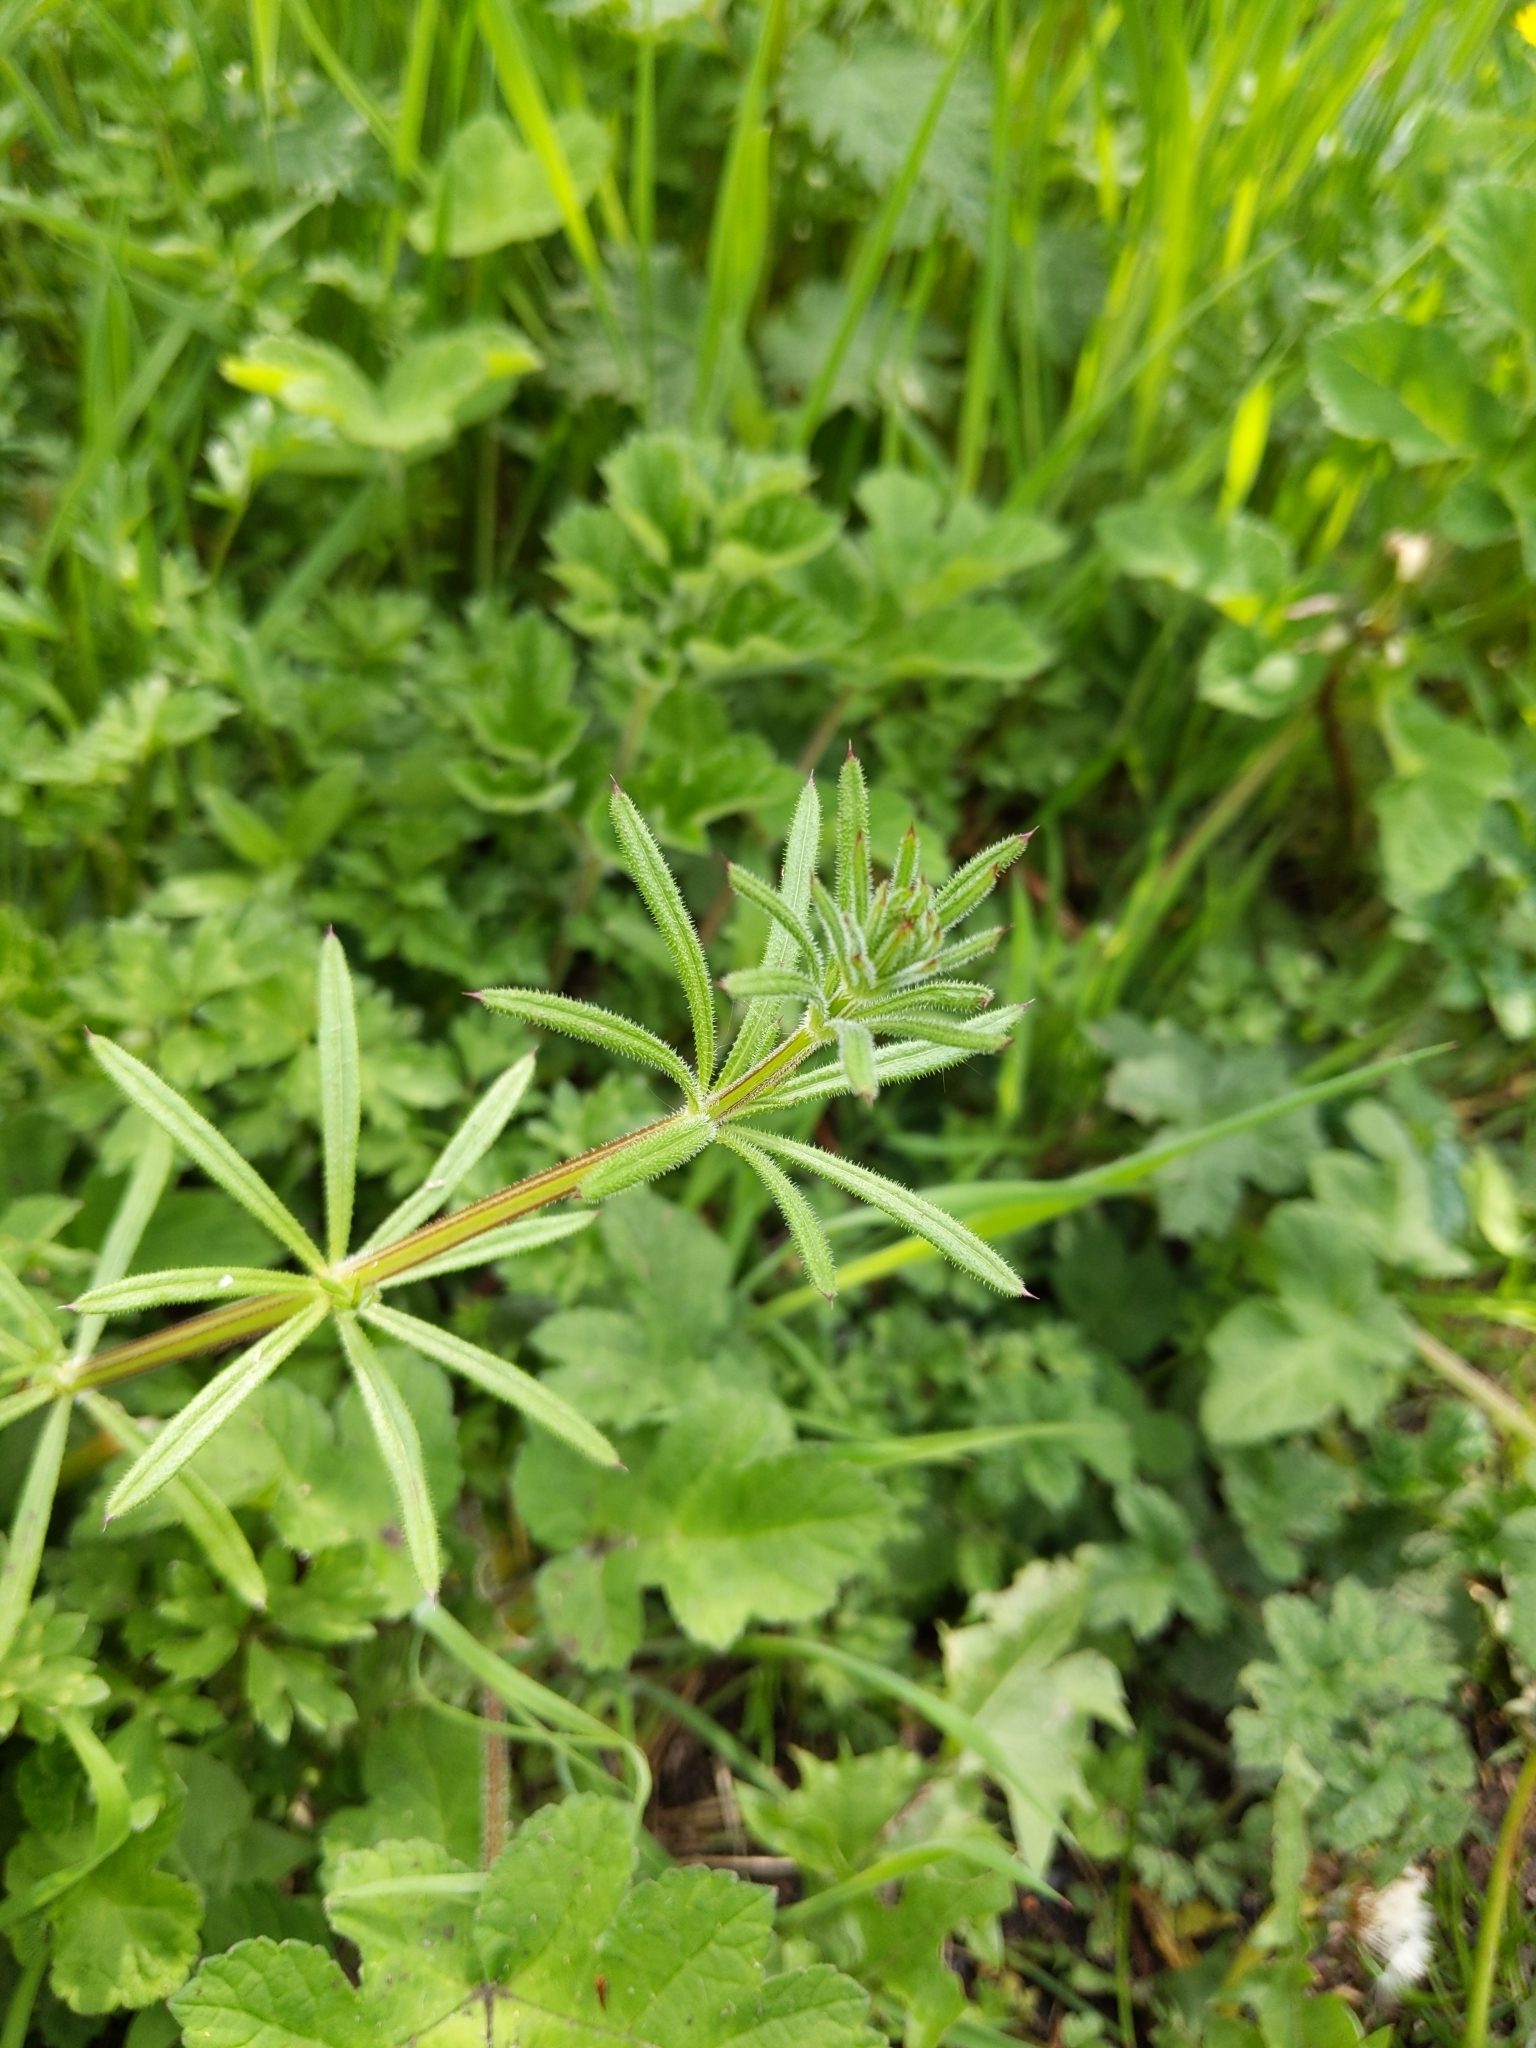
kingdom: Plantae
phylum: Tracheophyta
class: Magnoliopsida
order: Gentianales
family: Rubiaceae
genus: Galium
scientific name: Galium aparine
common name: Cleavers
